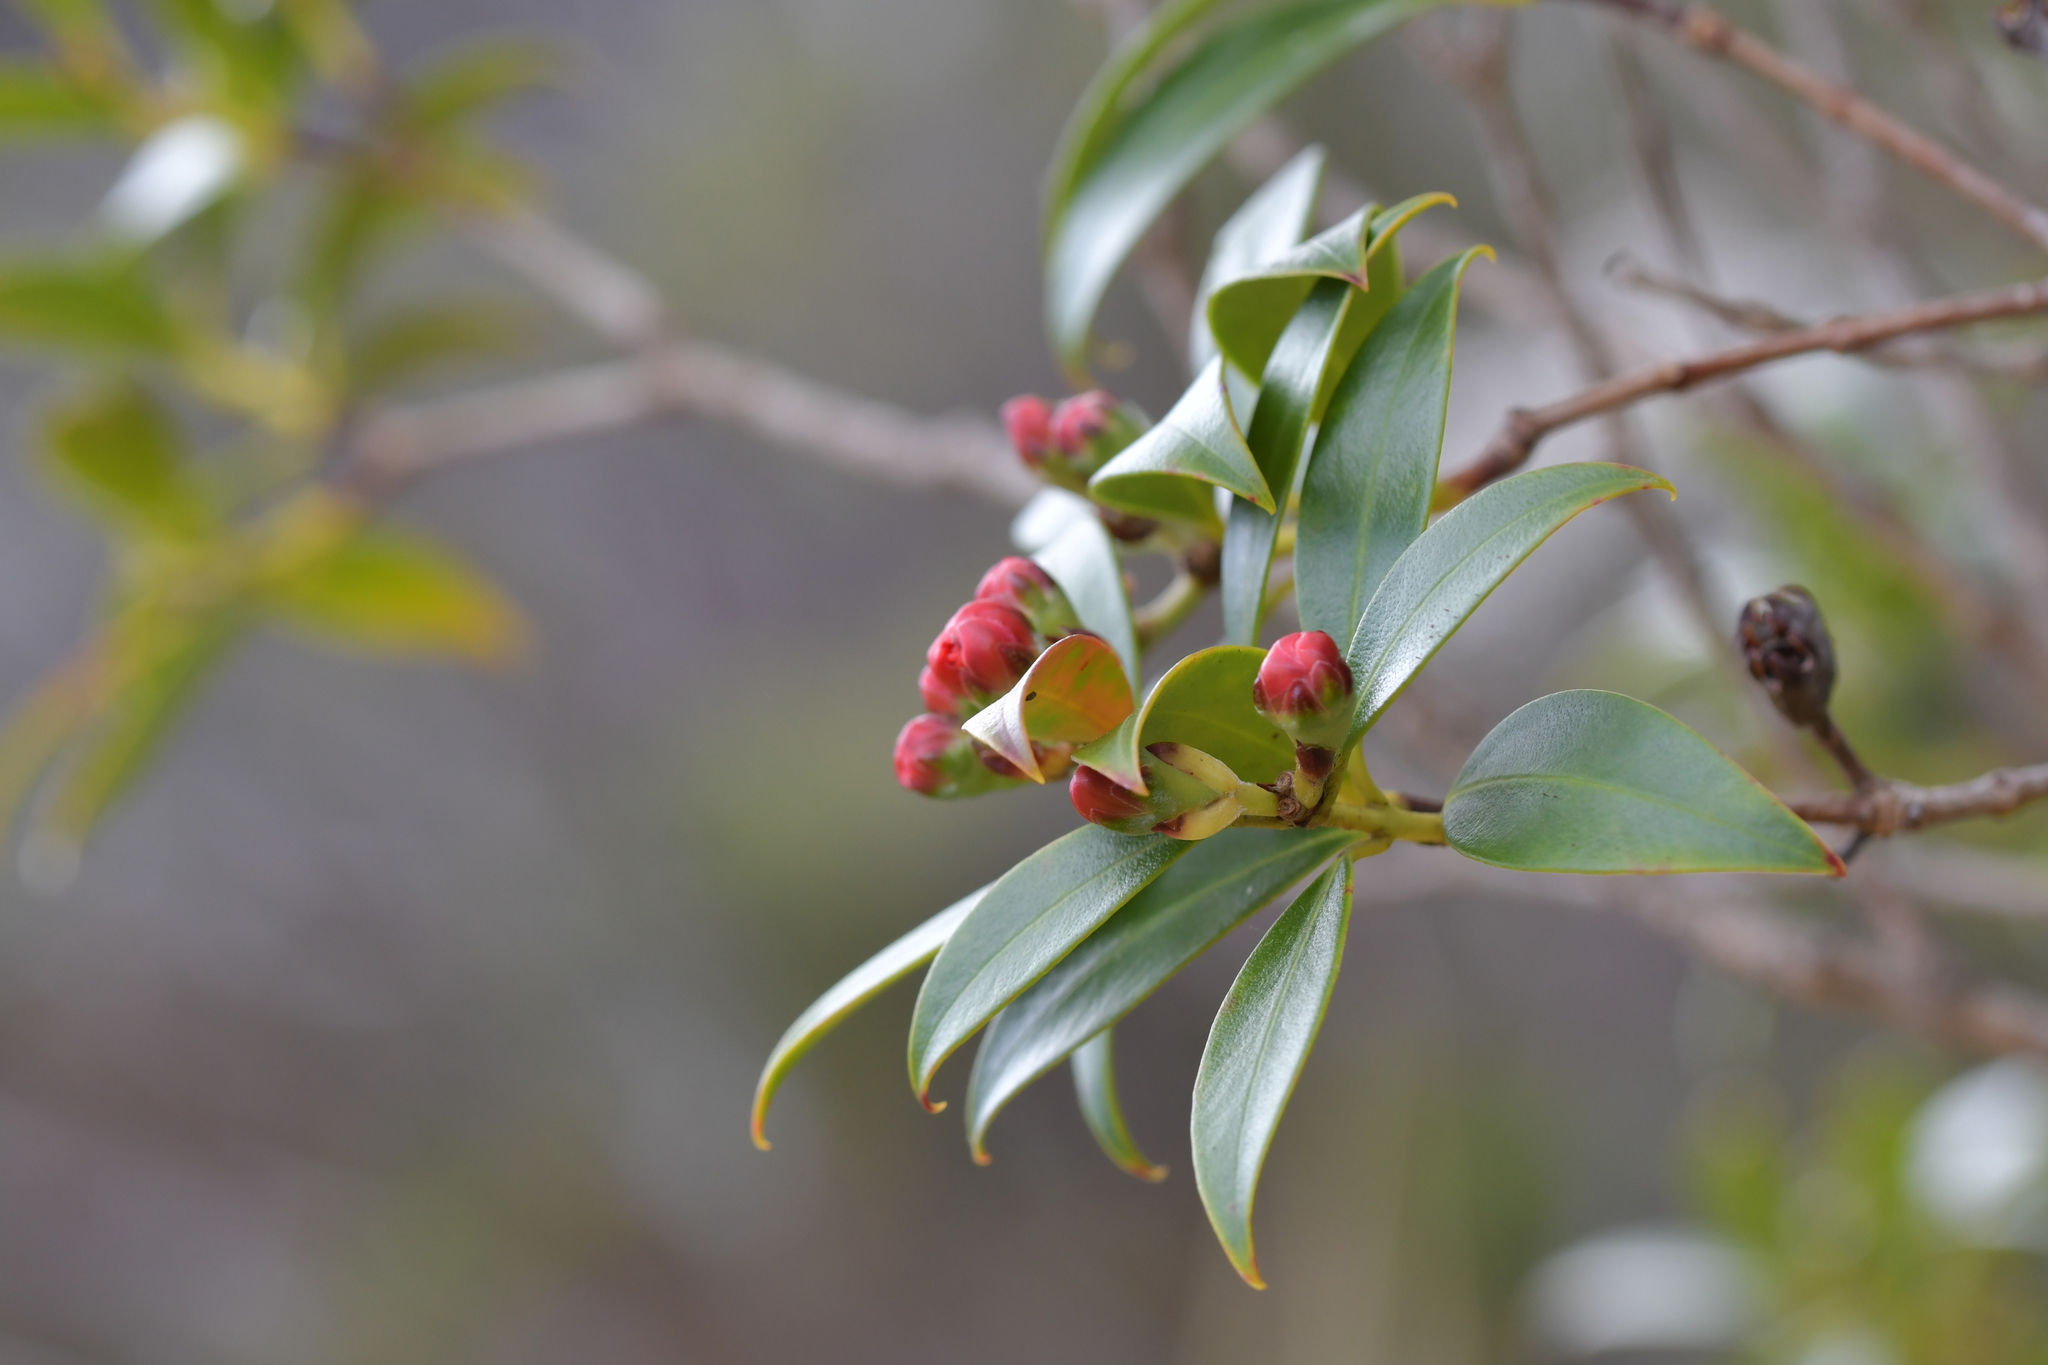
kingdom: Plantae
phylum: Tracheophyta
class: Magnoliopsida
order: Myrtales
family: Myrtaceae
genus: Metrosideros
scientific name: Metrosideros umbellata
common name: Southern rata
